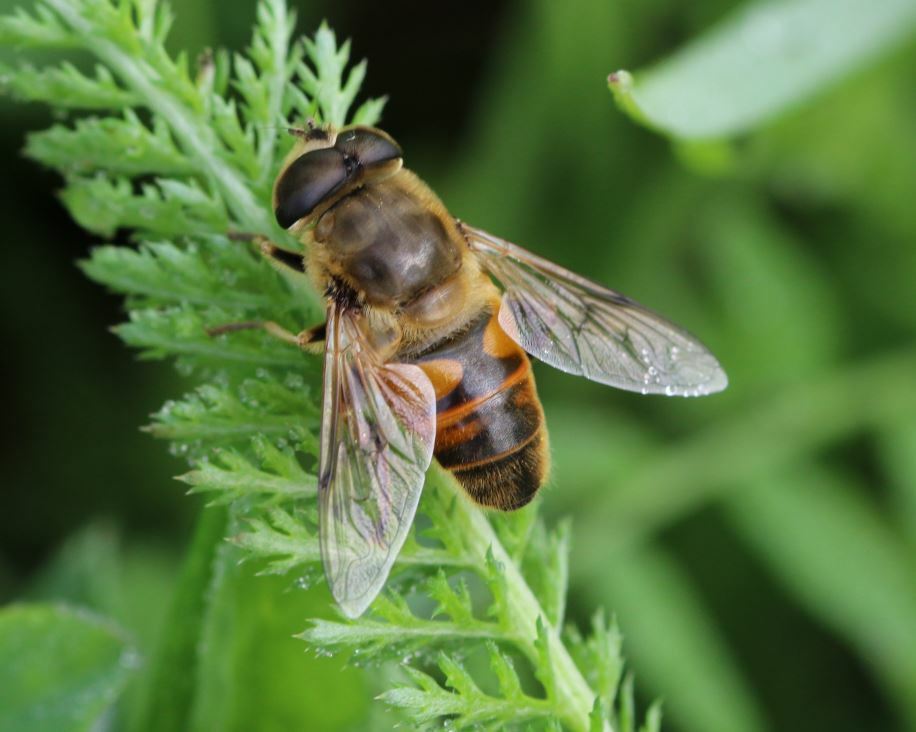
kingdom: Animalia
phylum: Arthropoda
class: Insecta
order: Diptera
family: Syrphidae
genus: Eristalis
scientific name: Eristalis tenax
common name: Drone fly
